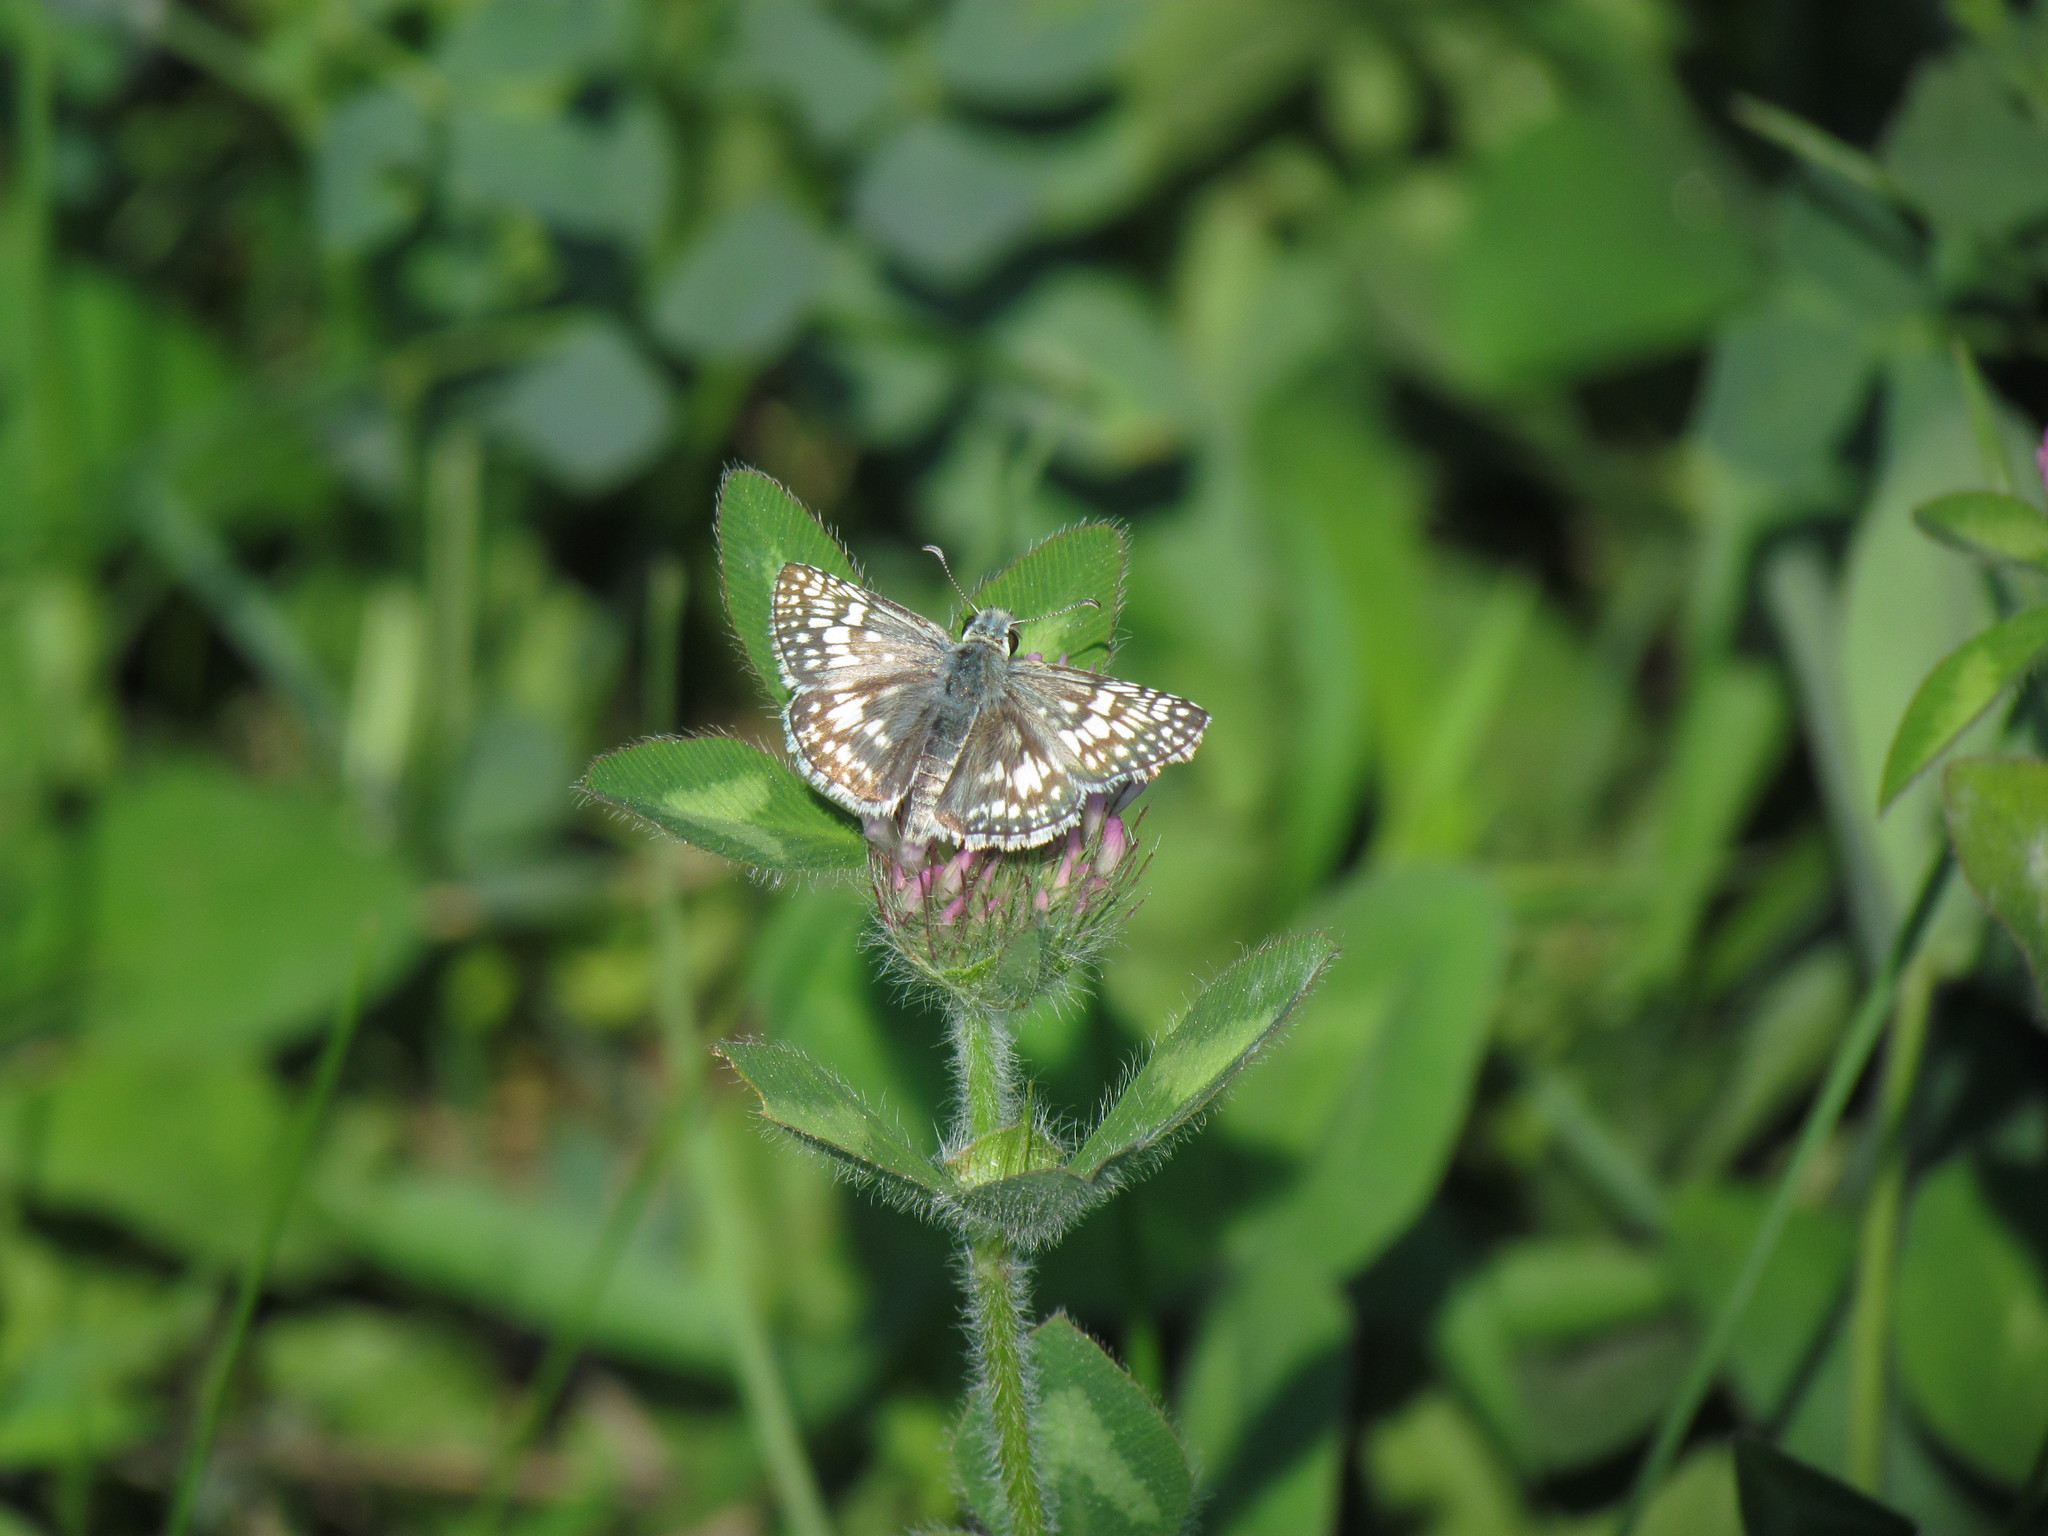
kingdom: Animalia
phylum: Arthropoda
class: Insecta
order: Lepidoptera
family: Hesperiidae
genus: Burnsius
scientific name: Burnsius communis
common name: Common checkered-skipper
